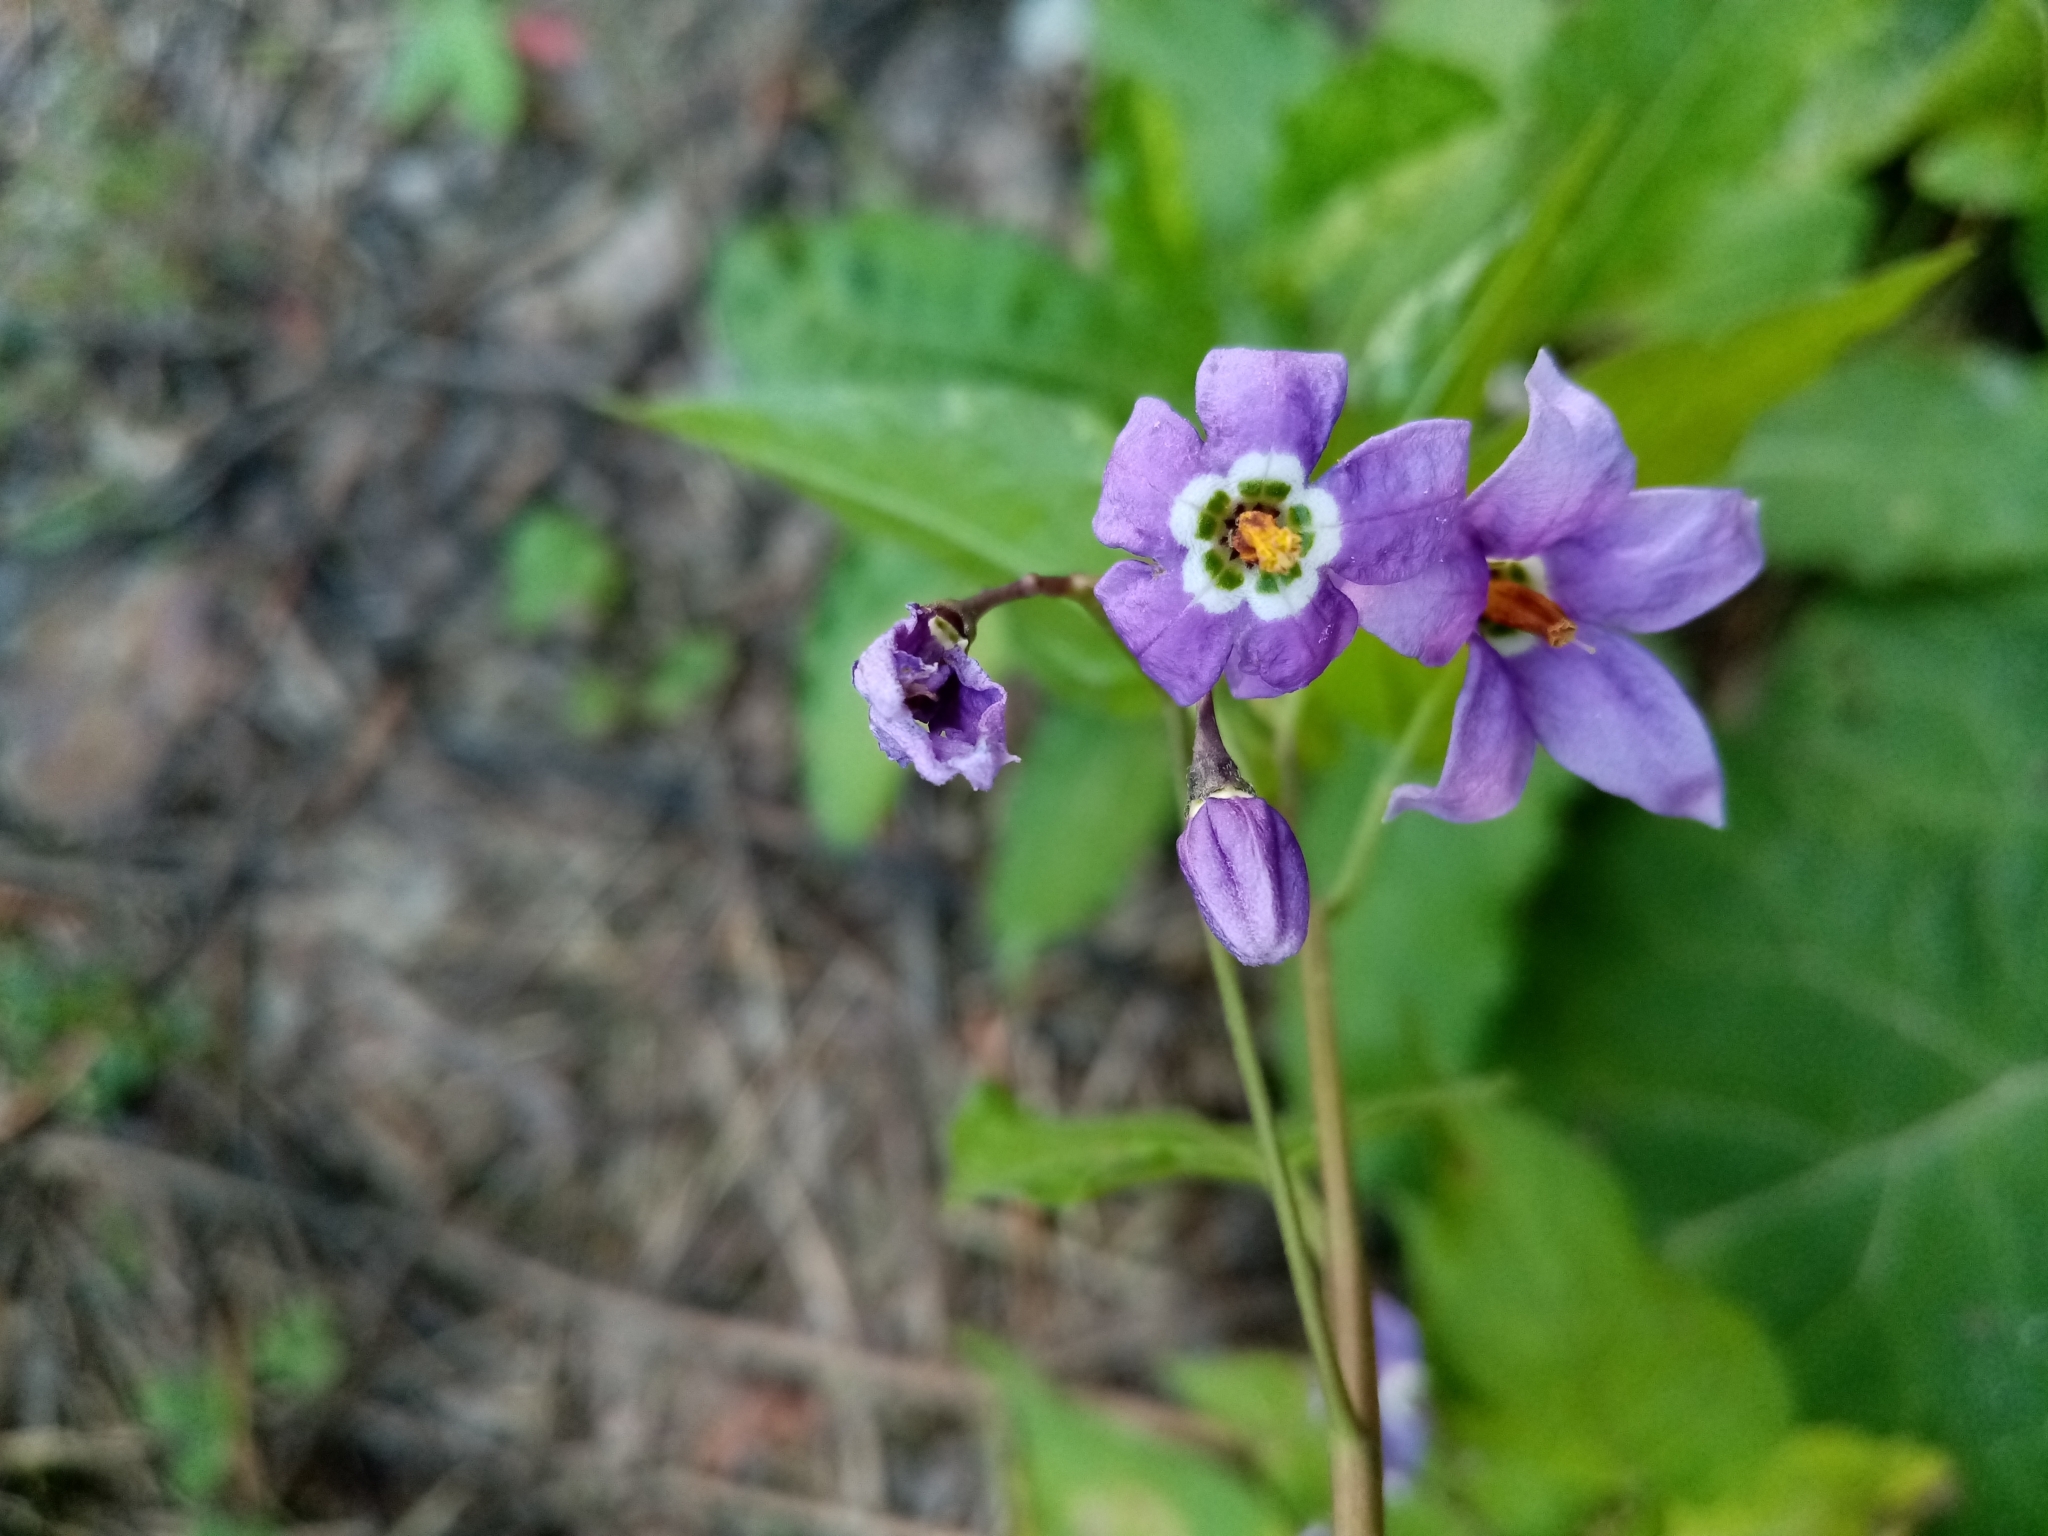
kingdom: Plantae
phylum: Tracheophyta
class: Magnoliopsida
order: Solanales
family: Solanaceae
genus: Solanum
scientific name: Solanum dulcamara
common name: Climbing nightshade
